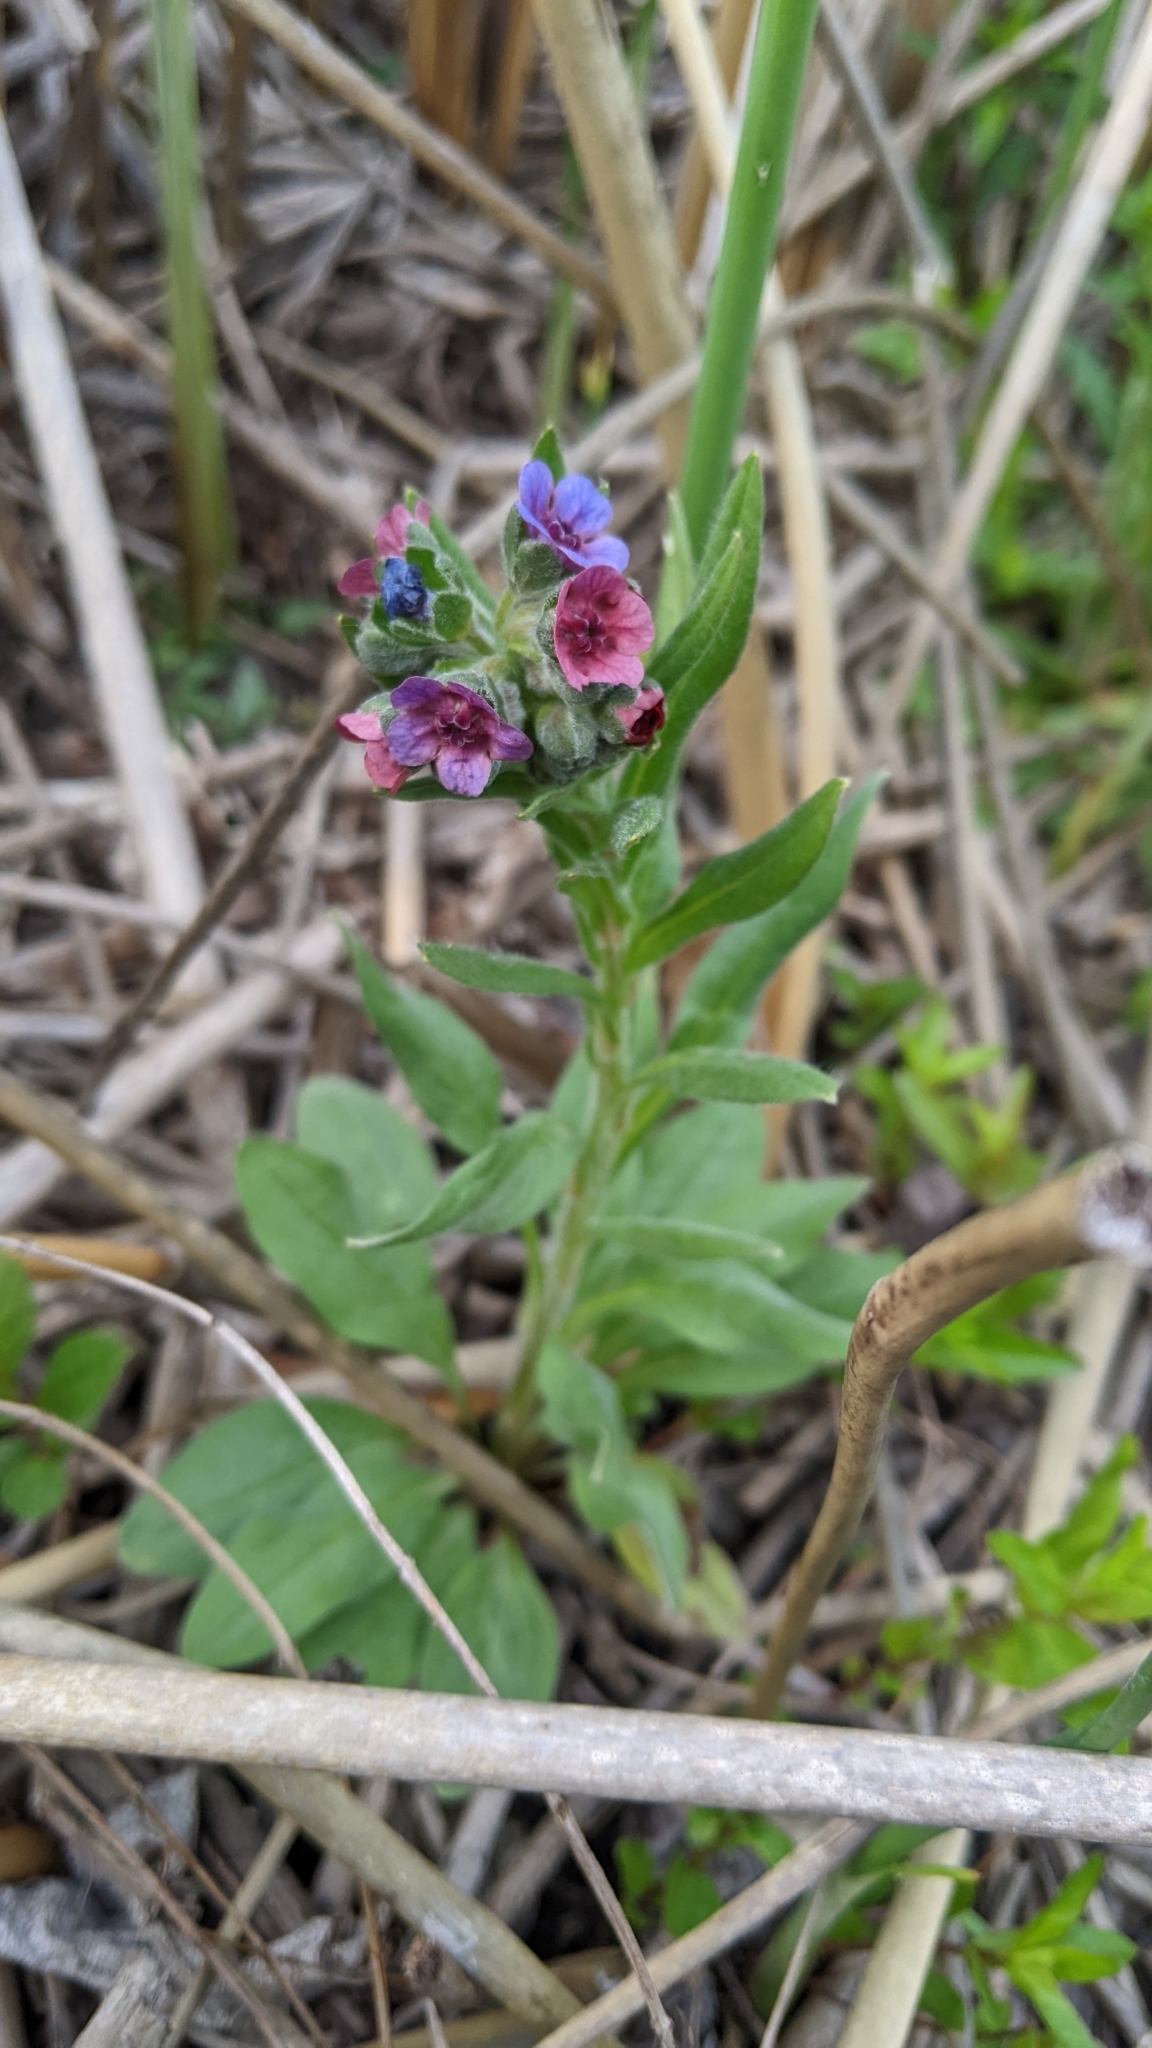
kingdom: Plantae
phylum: Tracheophyta
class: Magnoliopsida
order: Boraginales
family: Boraginaceae
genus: Cynoglossum
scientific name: Cynoglossum officinale
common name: Hound's-tongue
